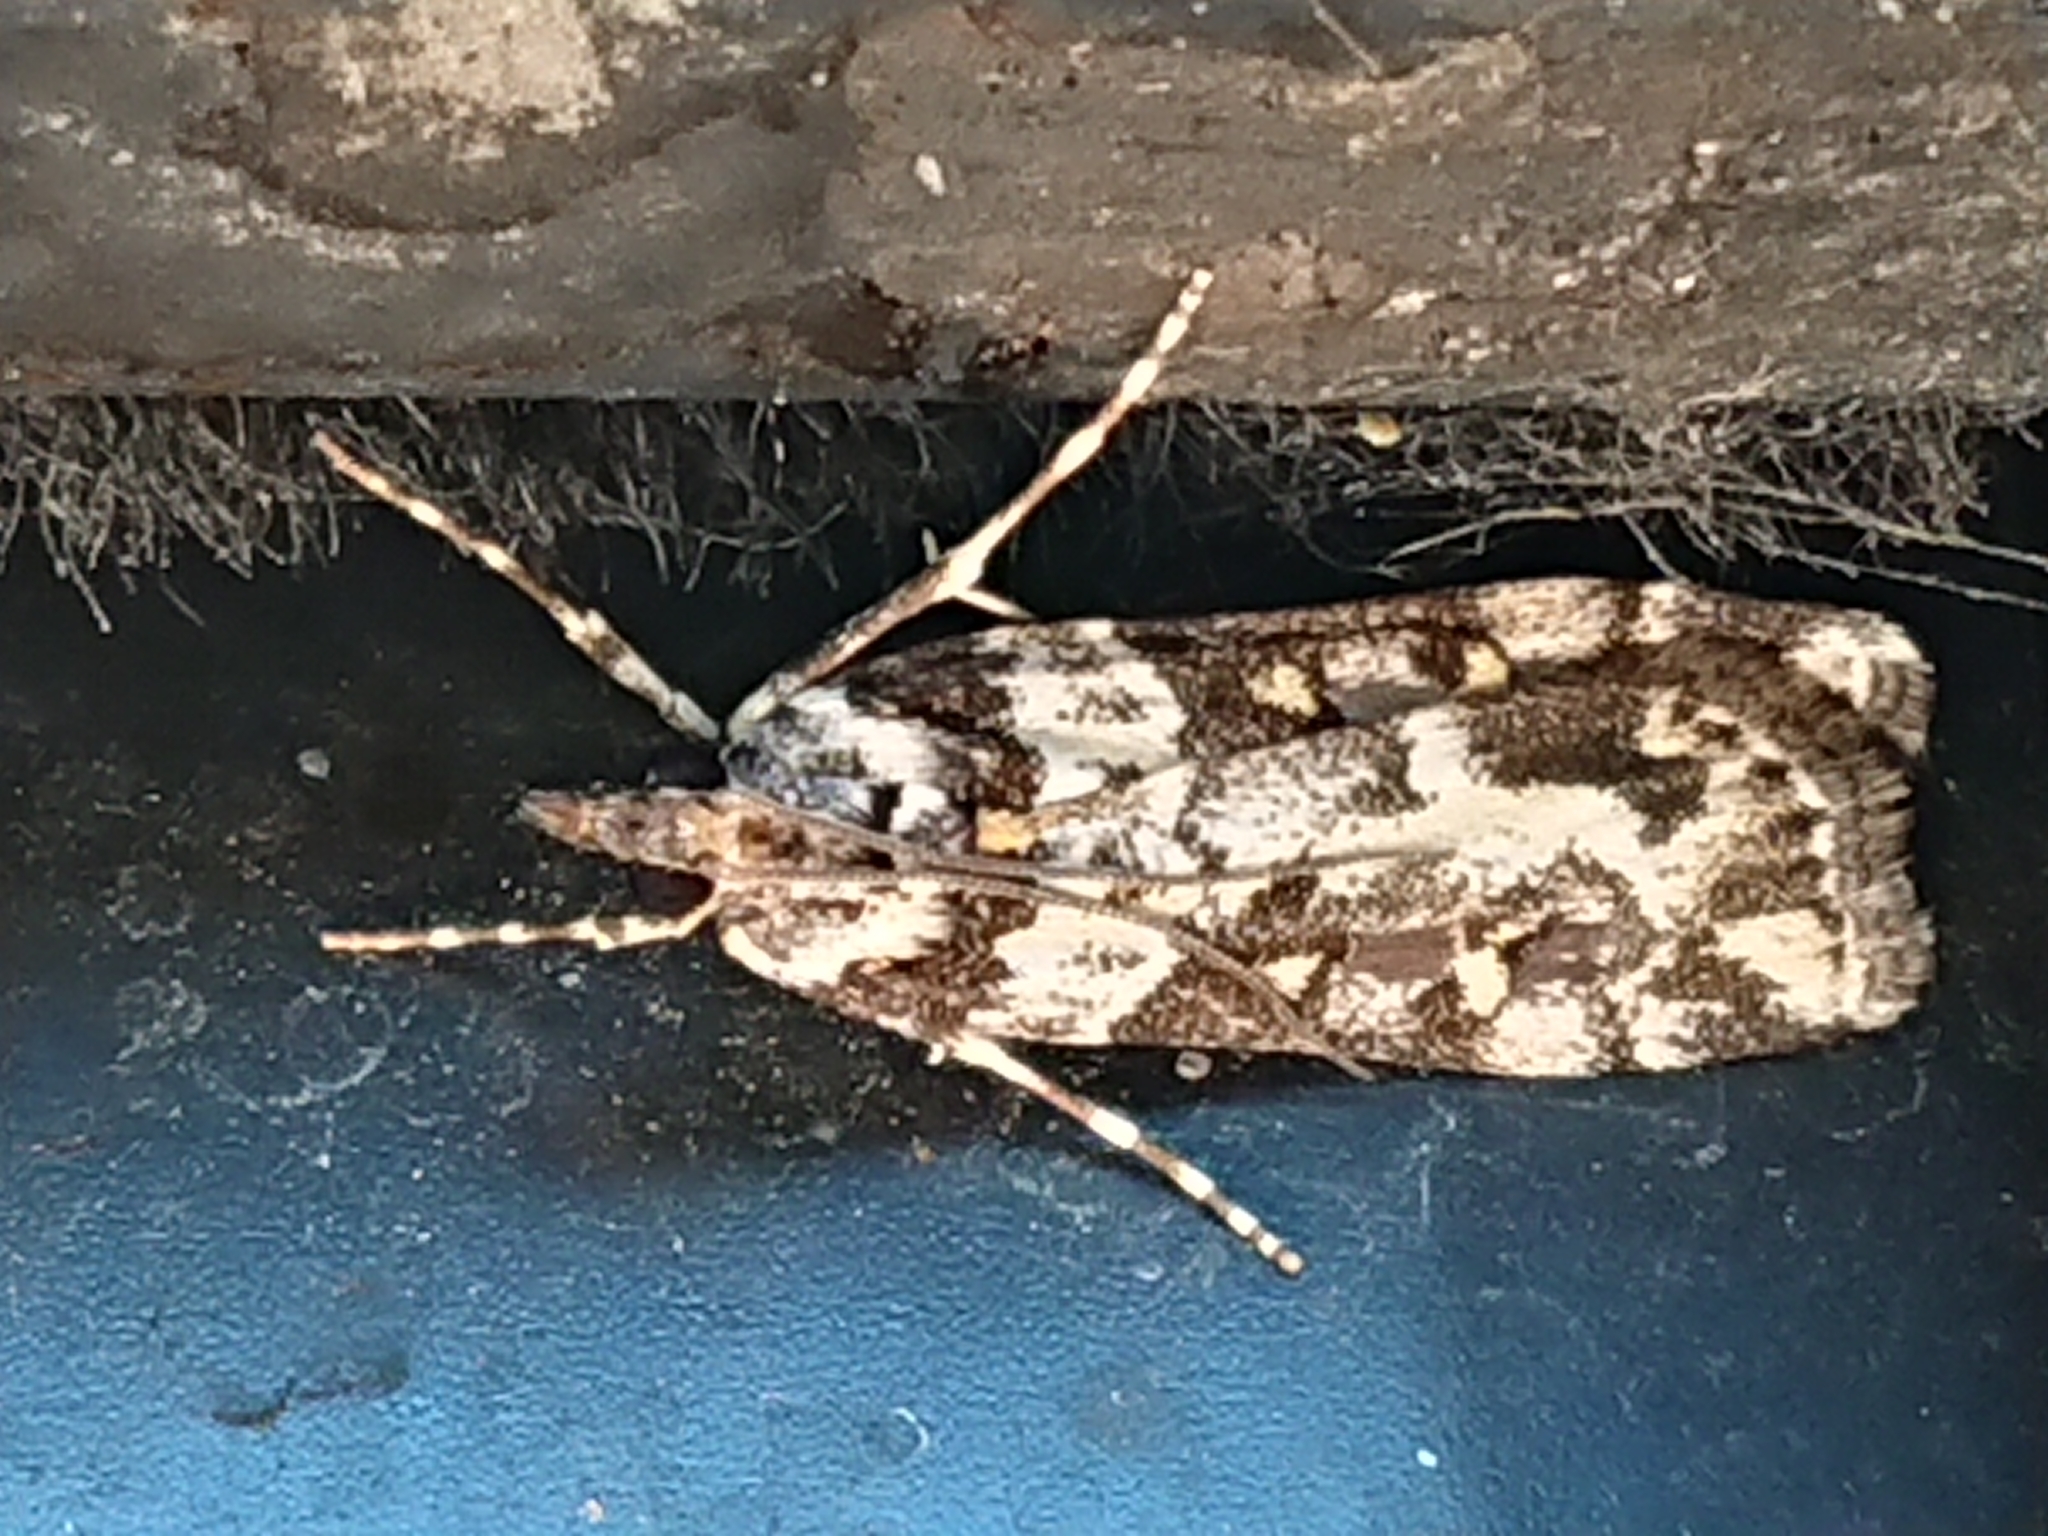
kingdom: Animalia
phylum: Arthropoda
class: Insecta
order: Lepidoptera
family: Crambidae
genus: Eudonia
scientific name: Eudonia diphtheralis
